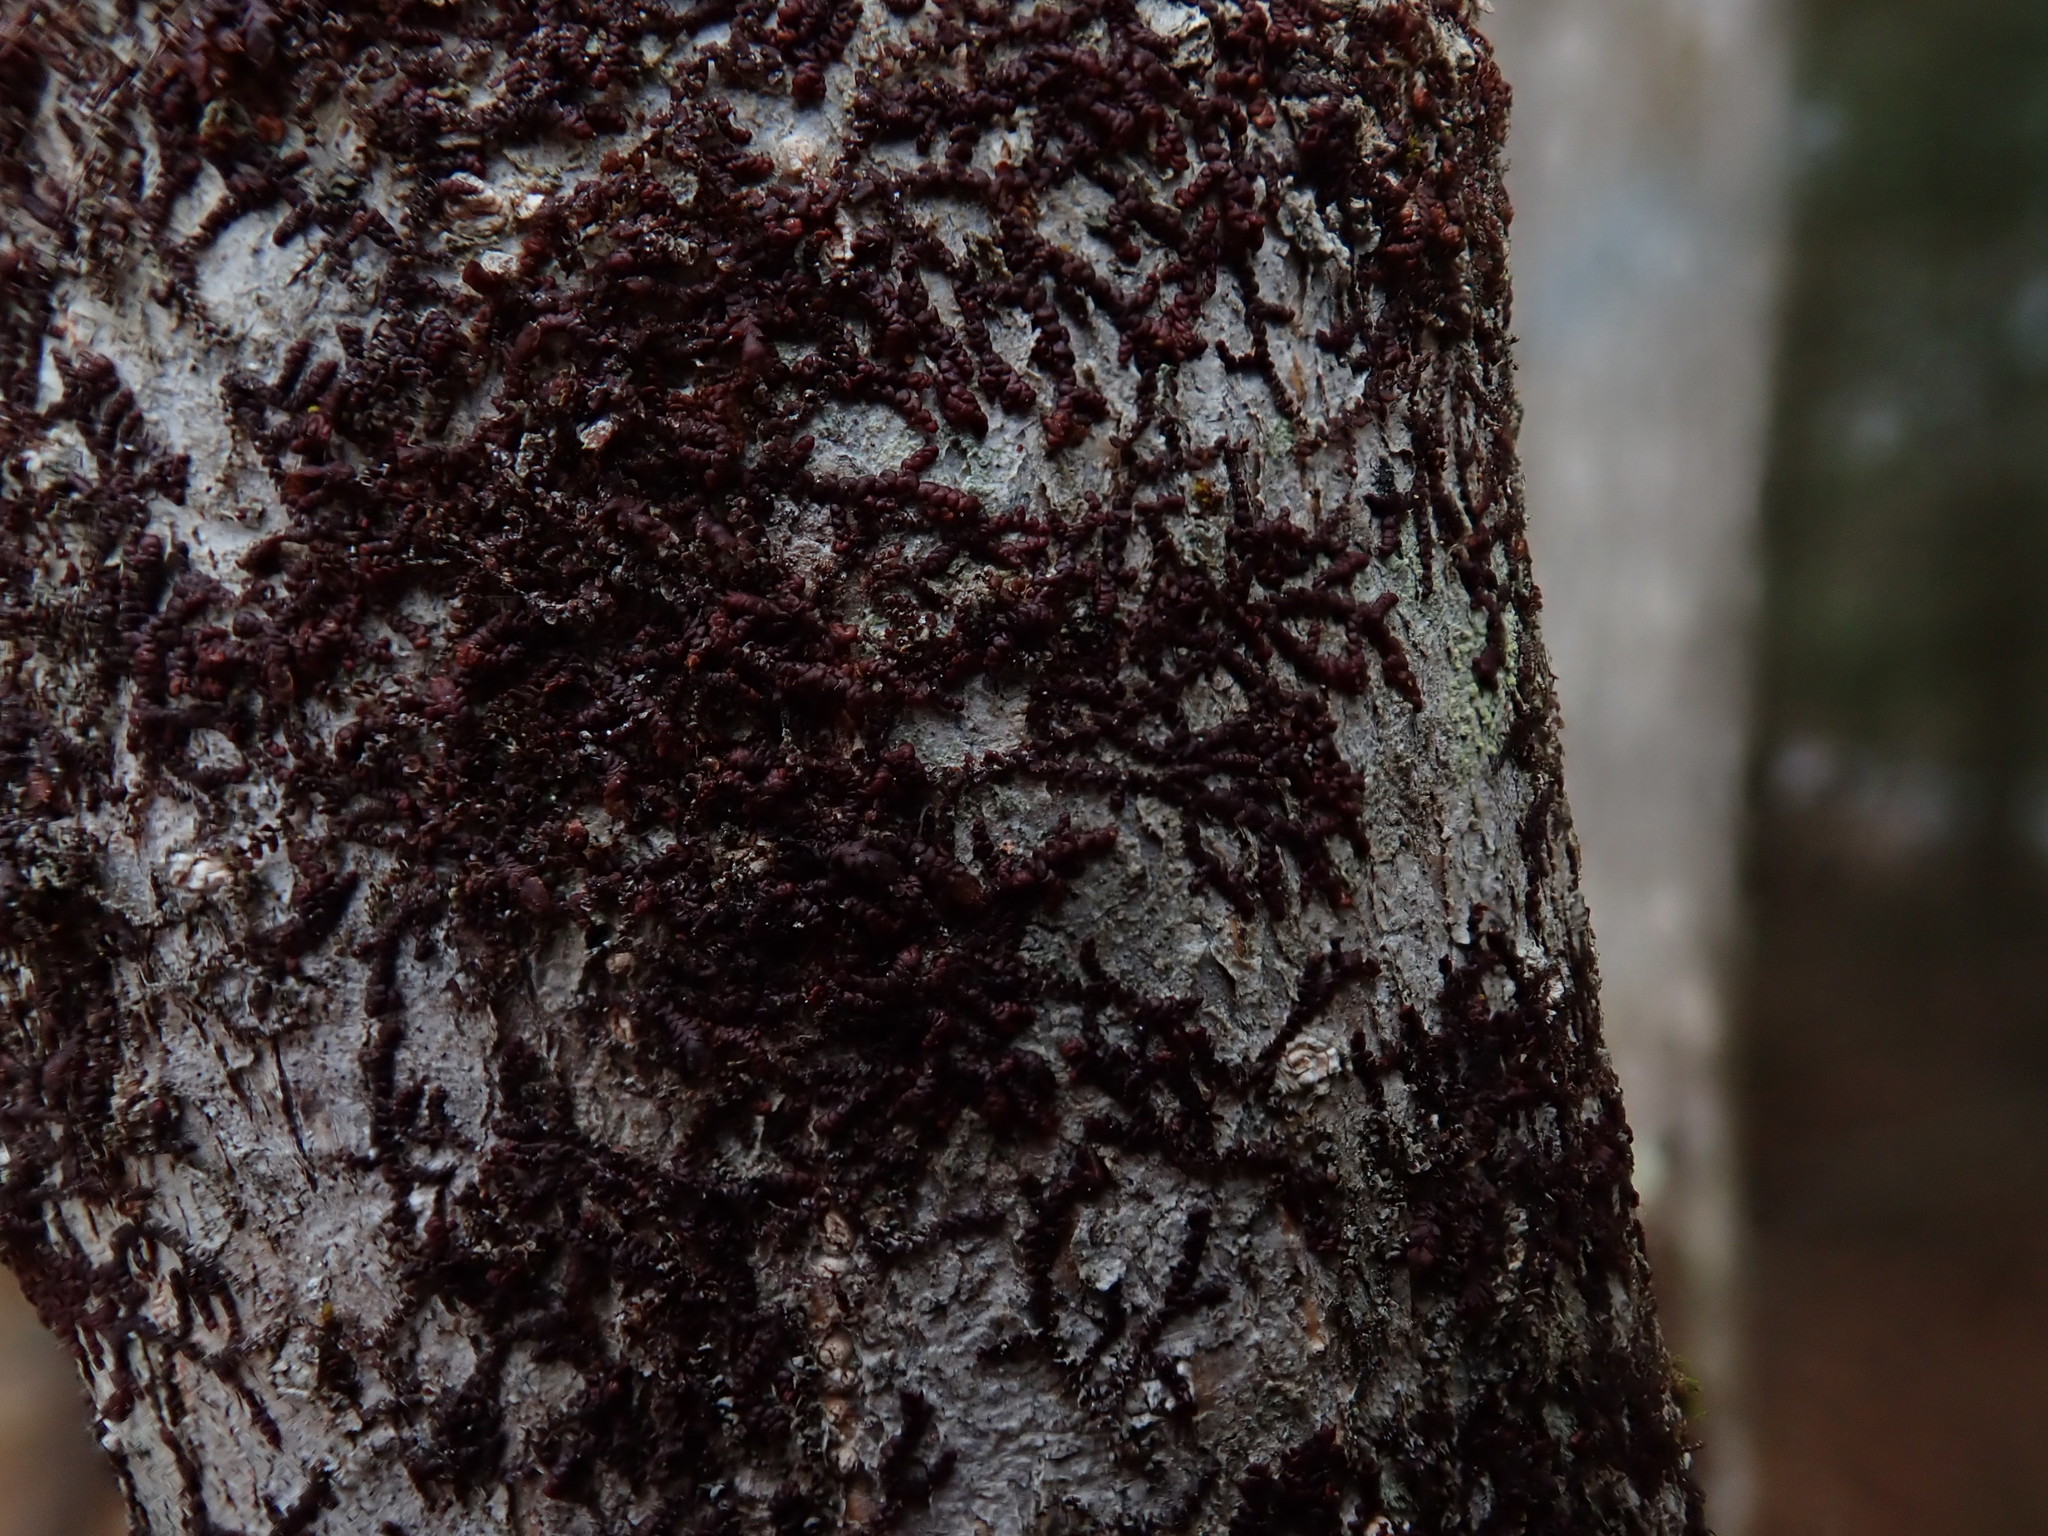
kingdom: Plantae
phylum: Marchantiophyta
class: Jungermanniopsida
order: Porellales
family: Frullaniaceae
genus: Frullania
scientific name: Frullania
